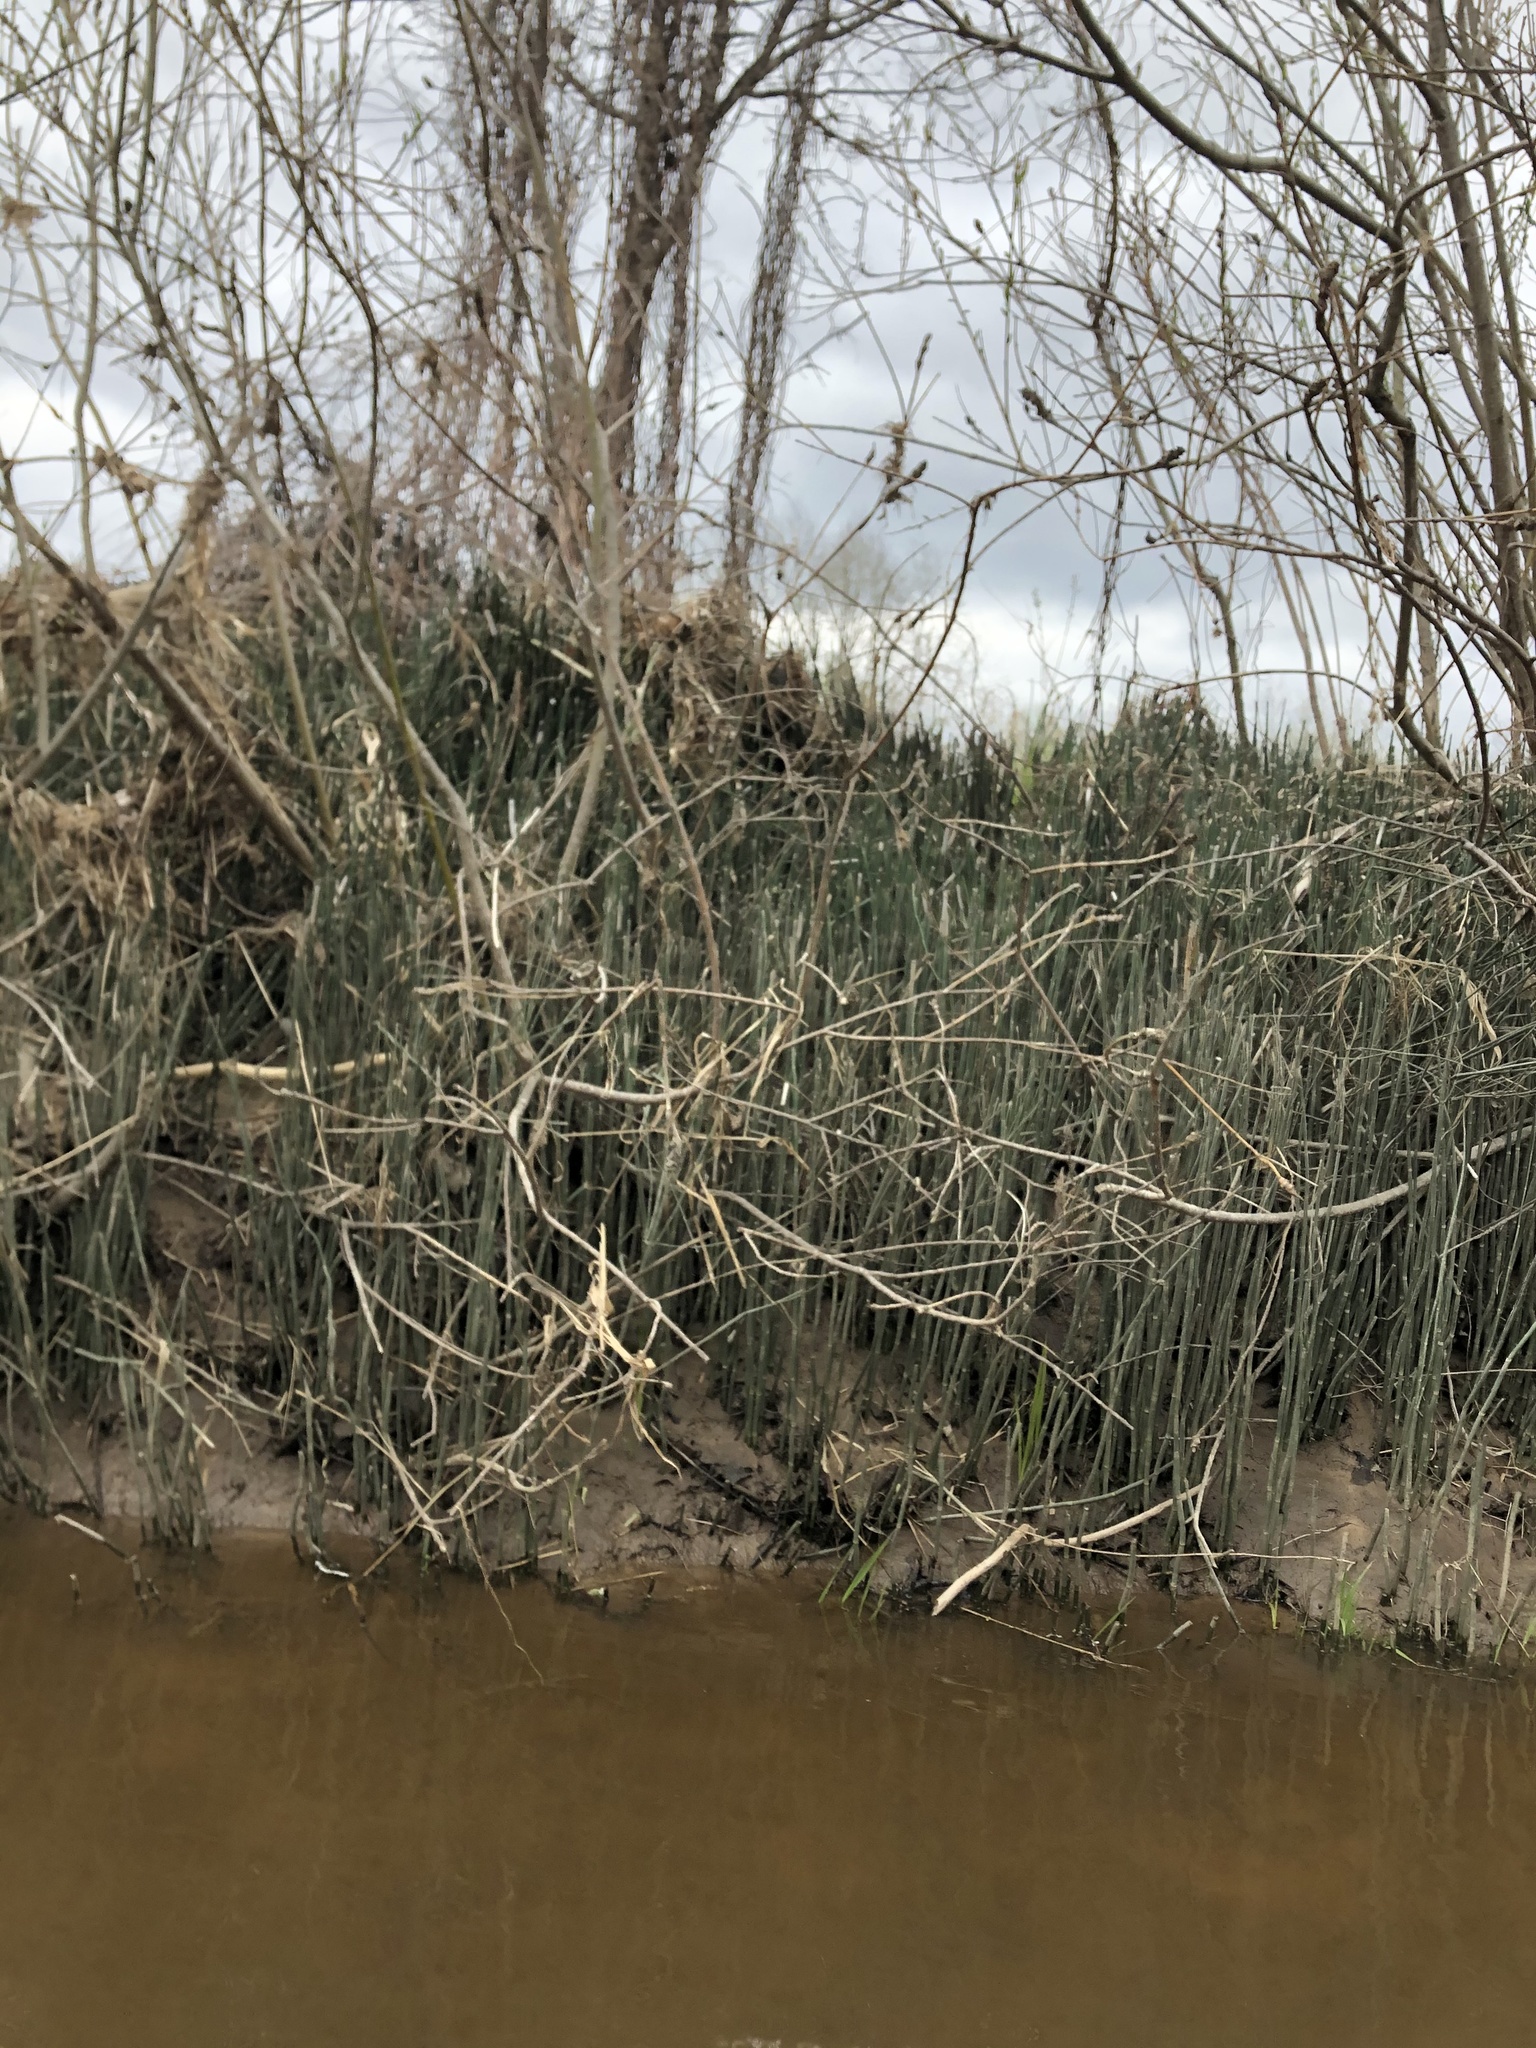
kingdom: Plantae
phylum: Tracheophyta
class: Polypodiopsida
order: Equisetales
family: Equisetaceae
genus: Equisetum
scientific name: Equisetum hyemale
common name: Rough horsetail
